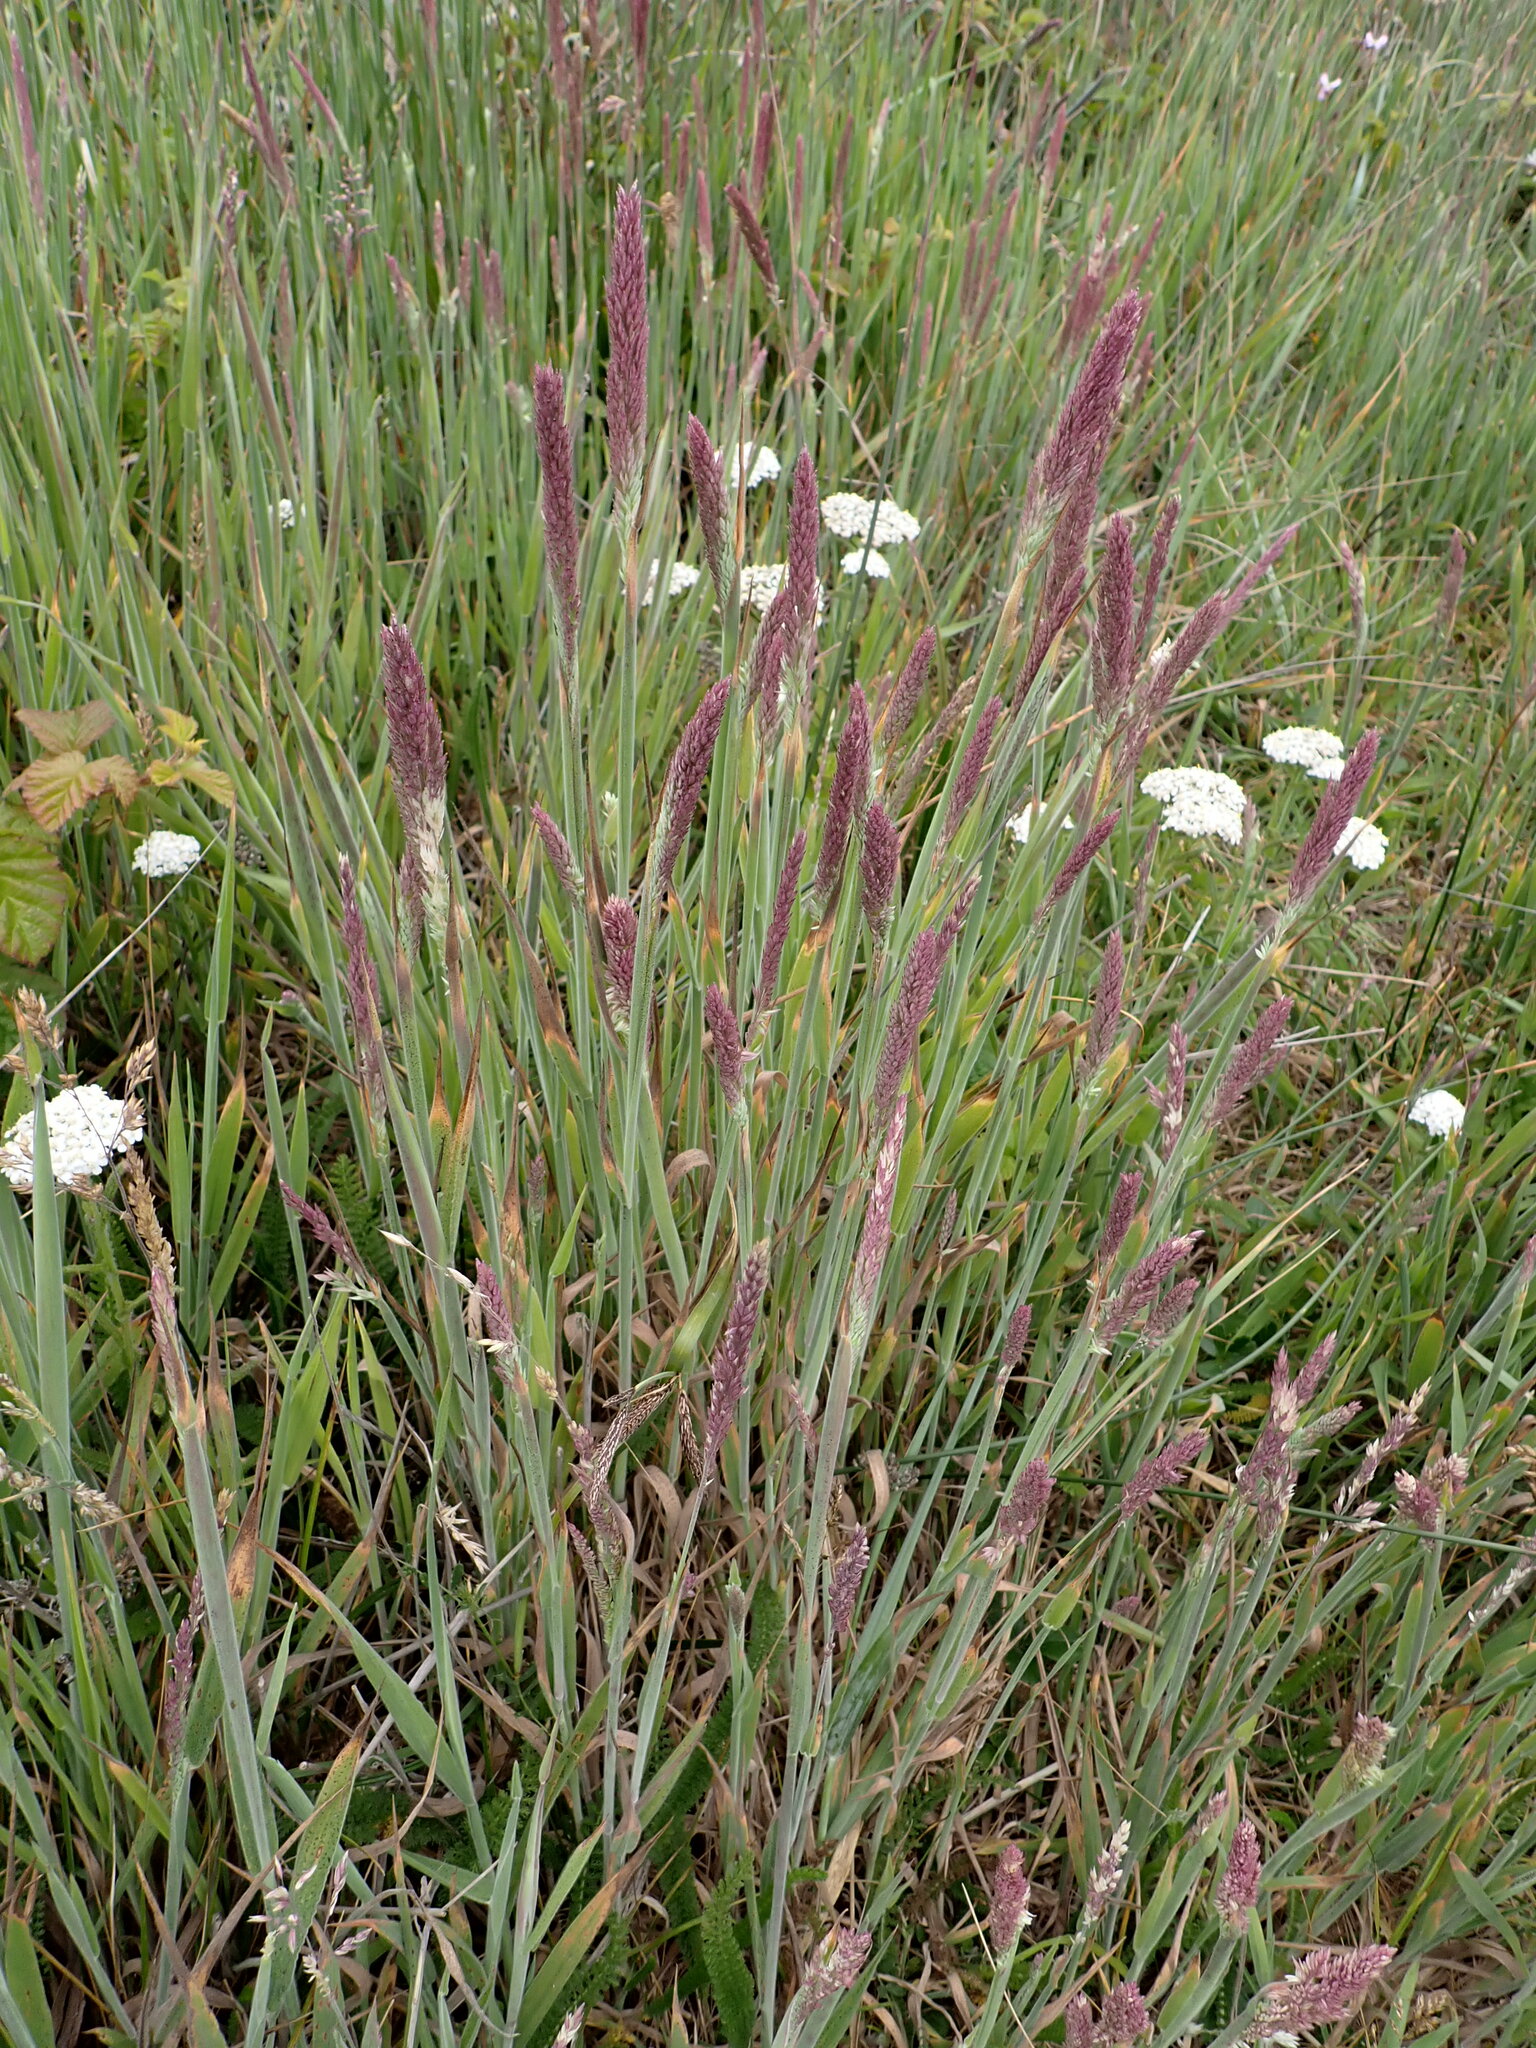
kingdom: Plantae
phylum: Tracheophyta
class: Liliopsida
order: Poales
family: Poaceae
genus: Holcus
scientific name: Holcus lanatus
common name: Yorkshire-fog
